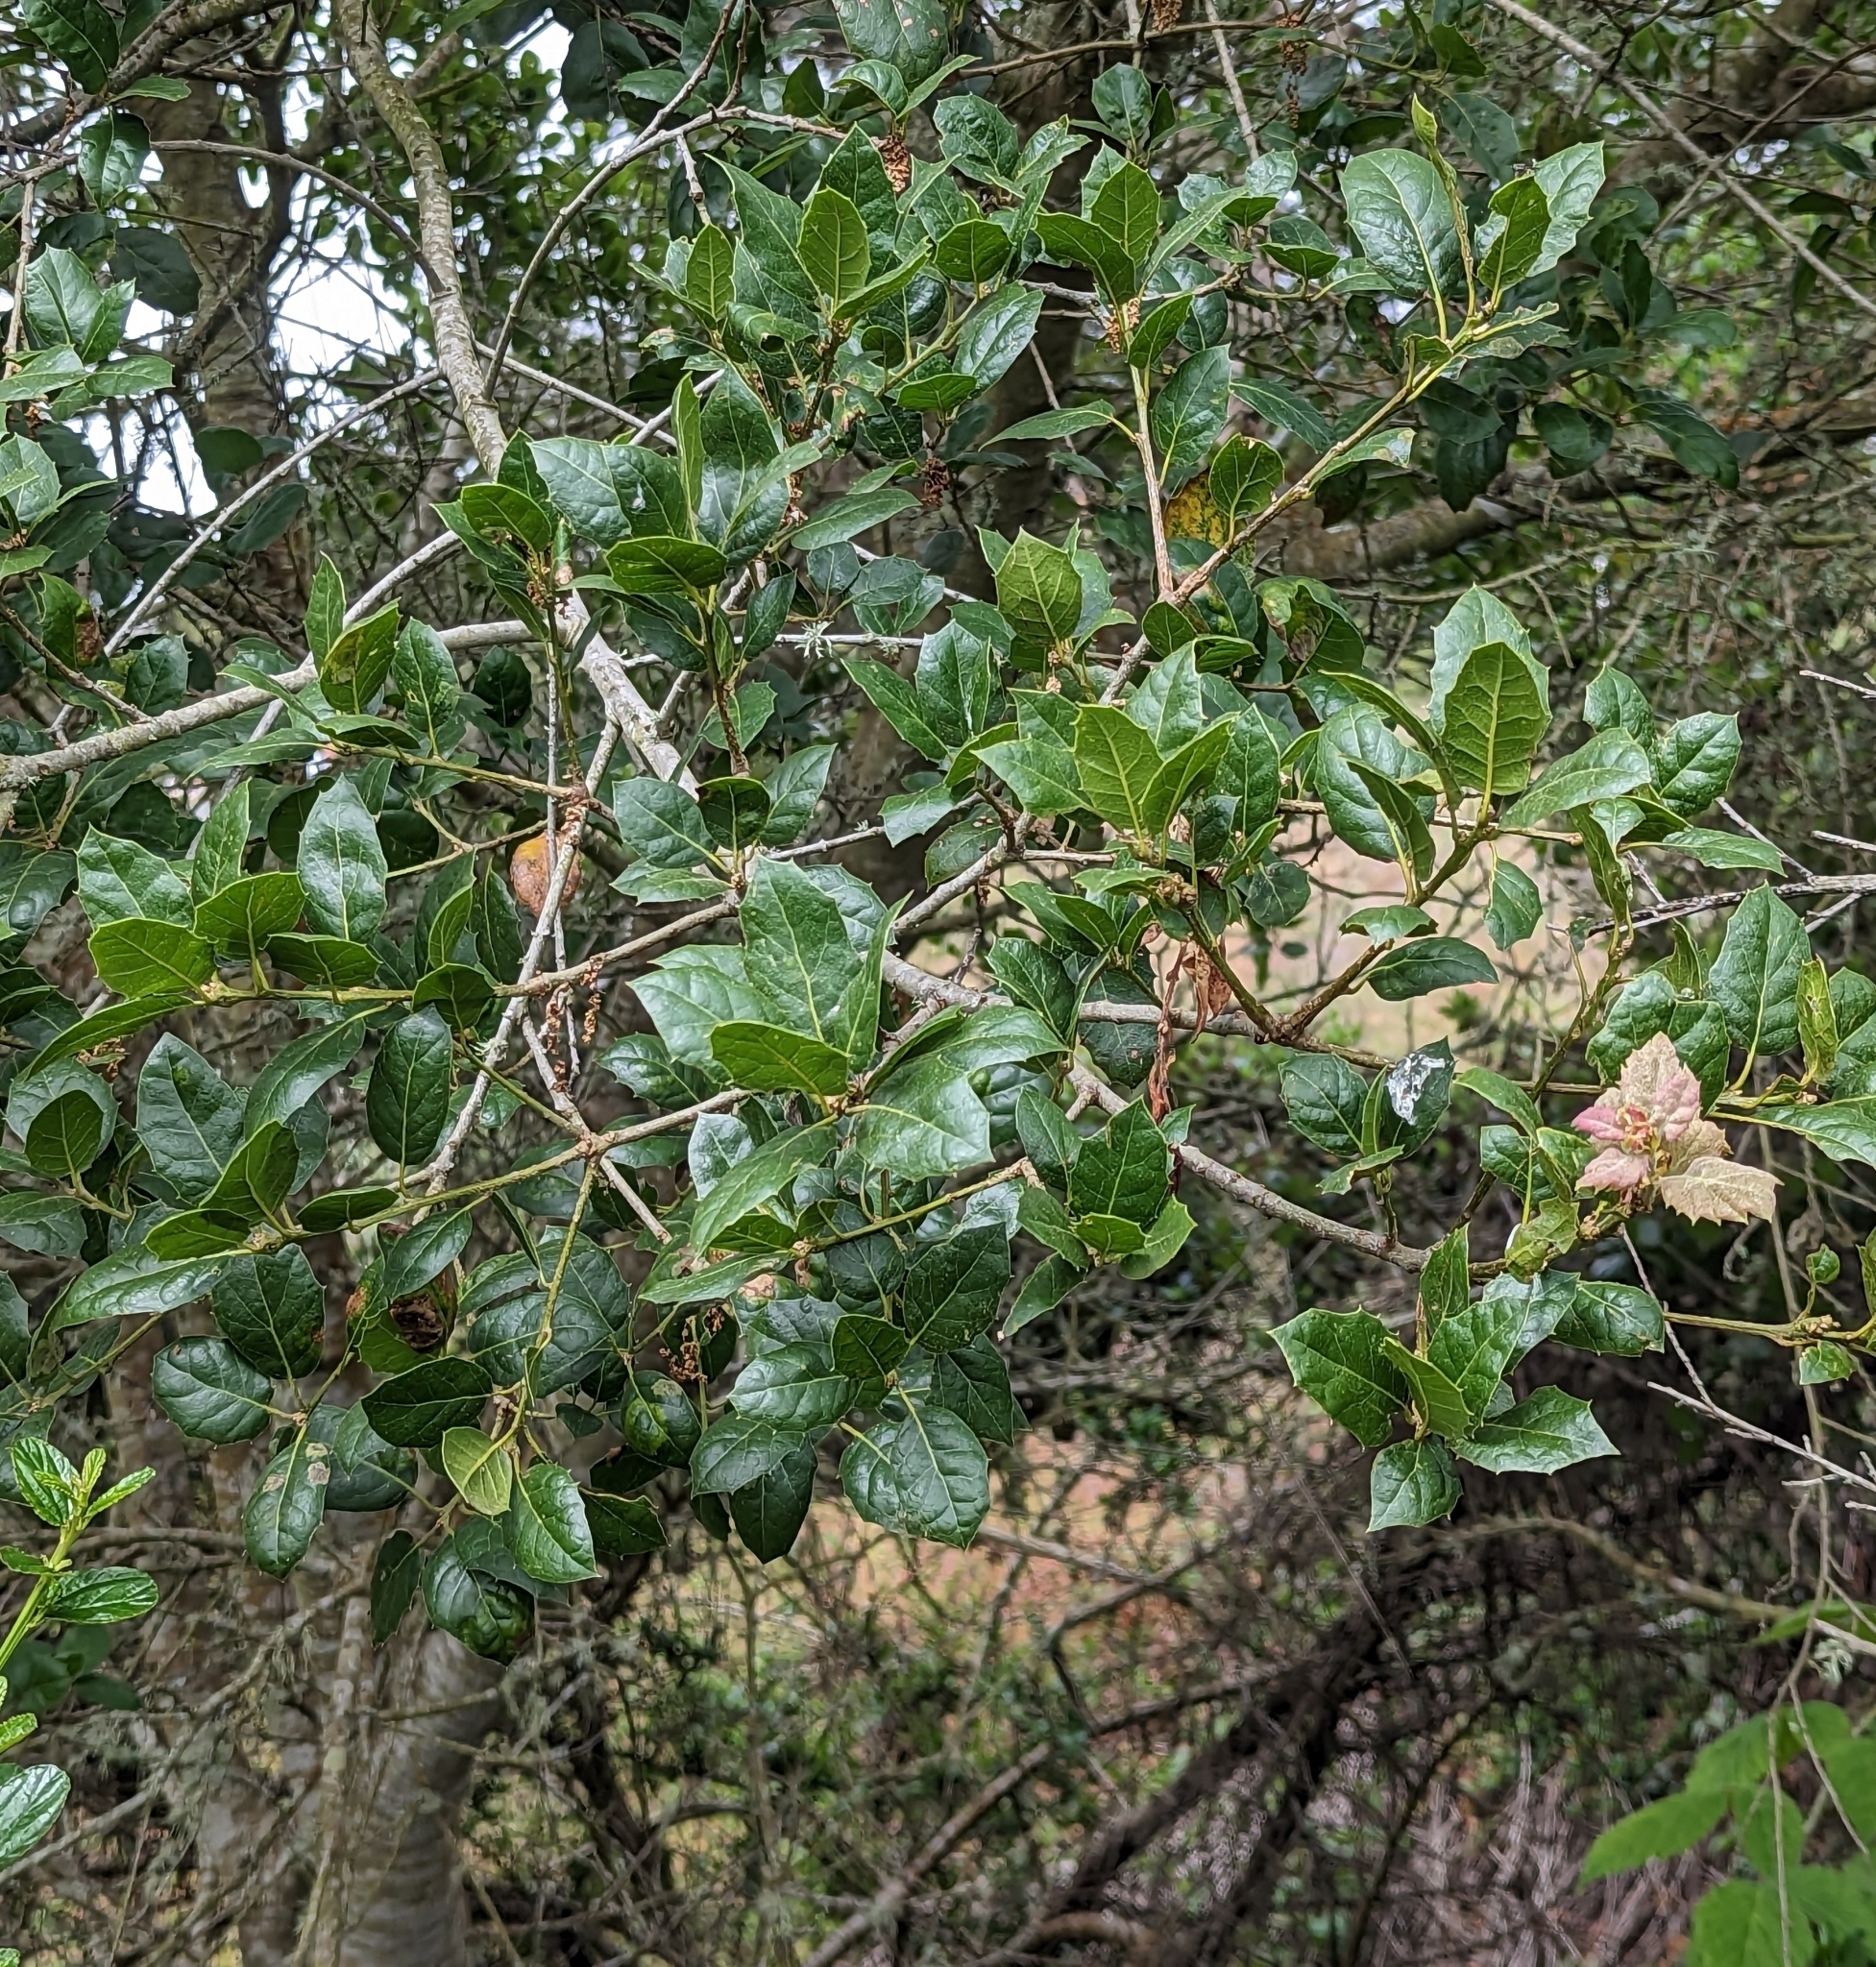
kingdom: Plantae
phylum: Tracheophyta
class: Magnoliopsida
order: Fagales
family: Fagaceae
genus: Quercus
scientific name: Quercus agrifolia
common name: California live oak
